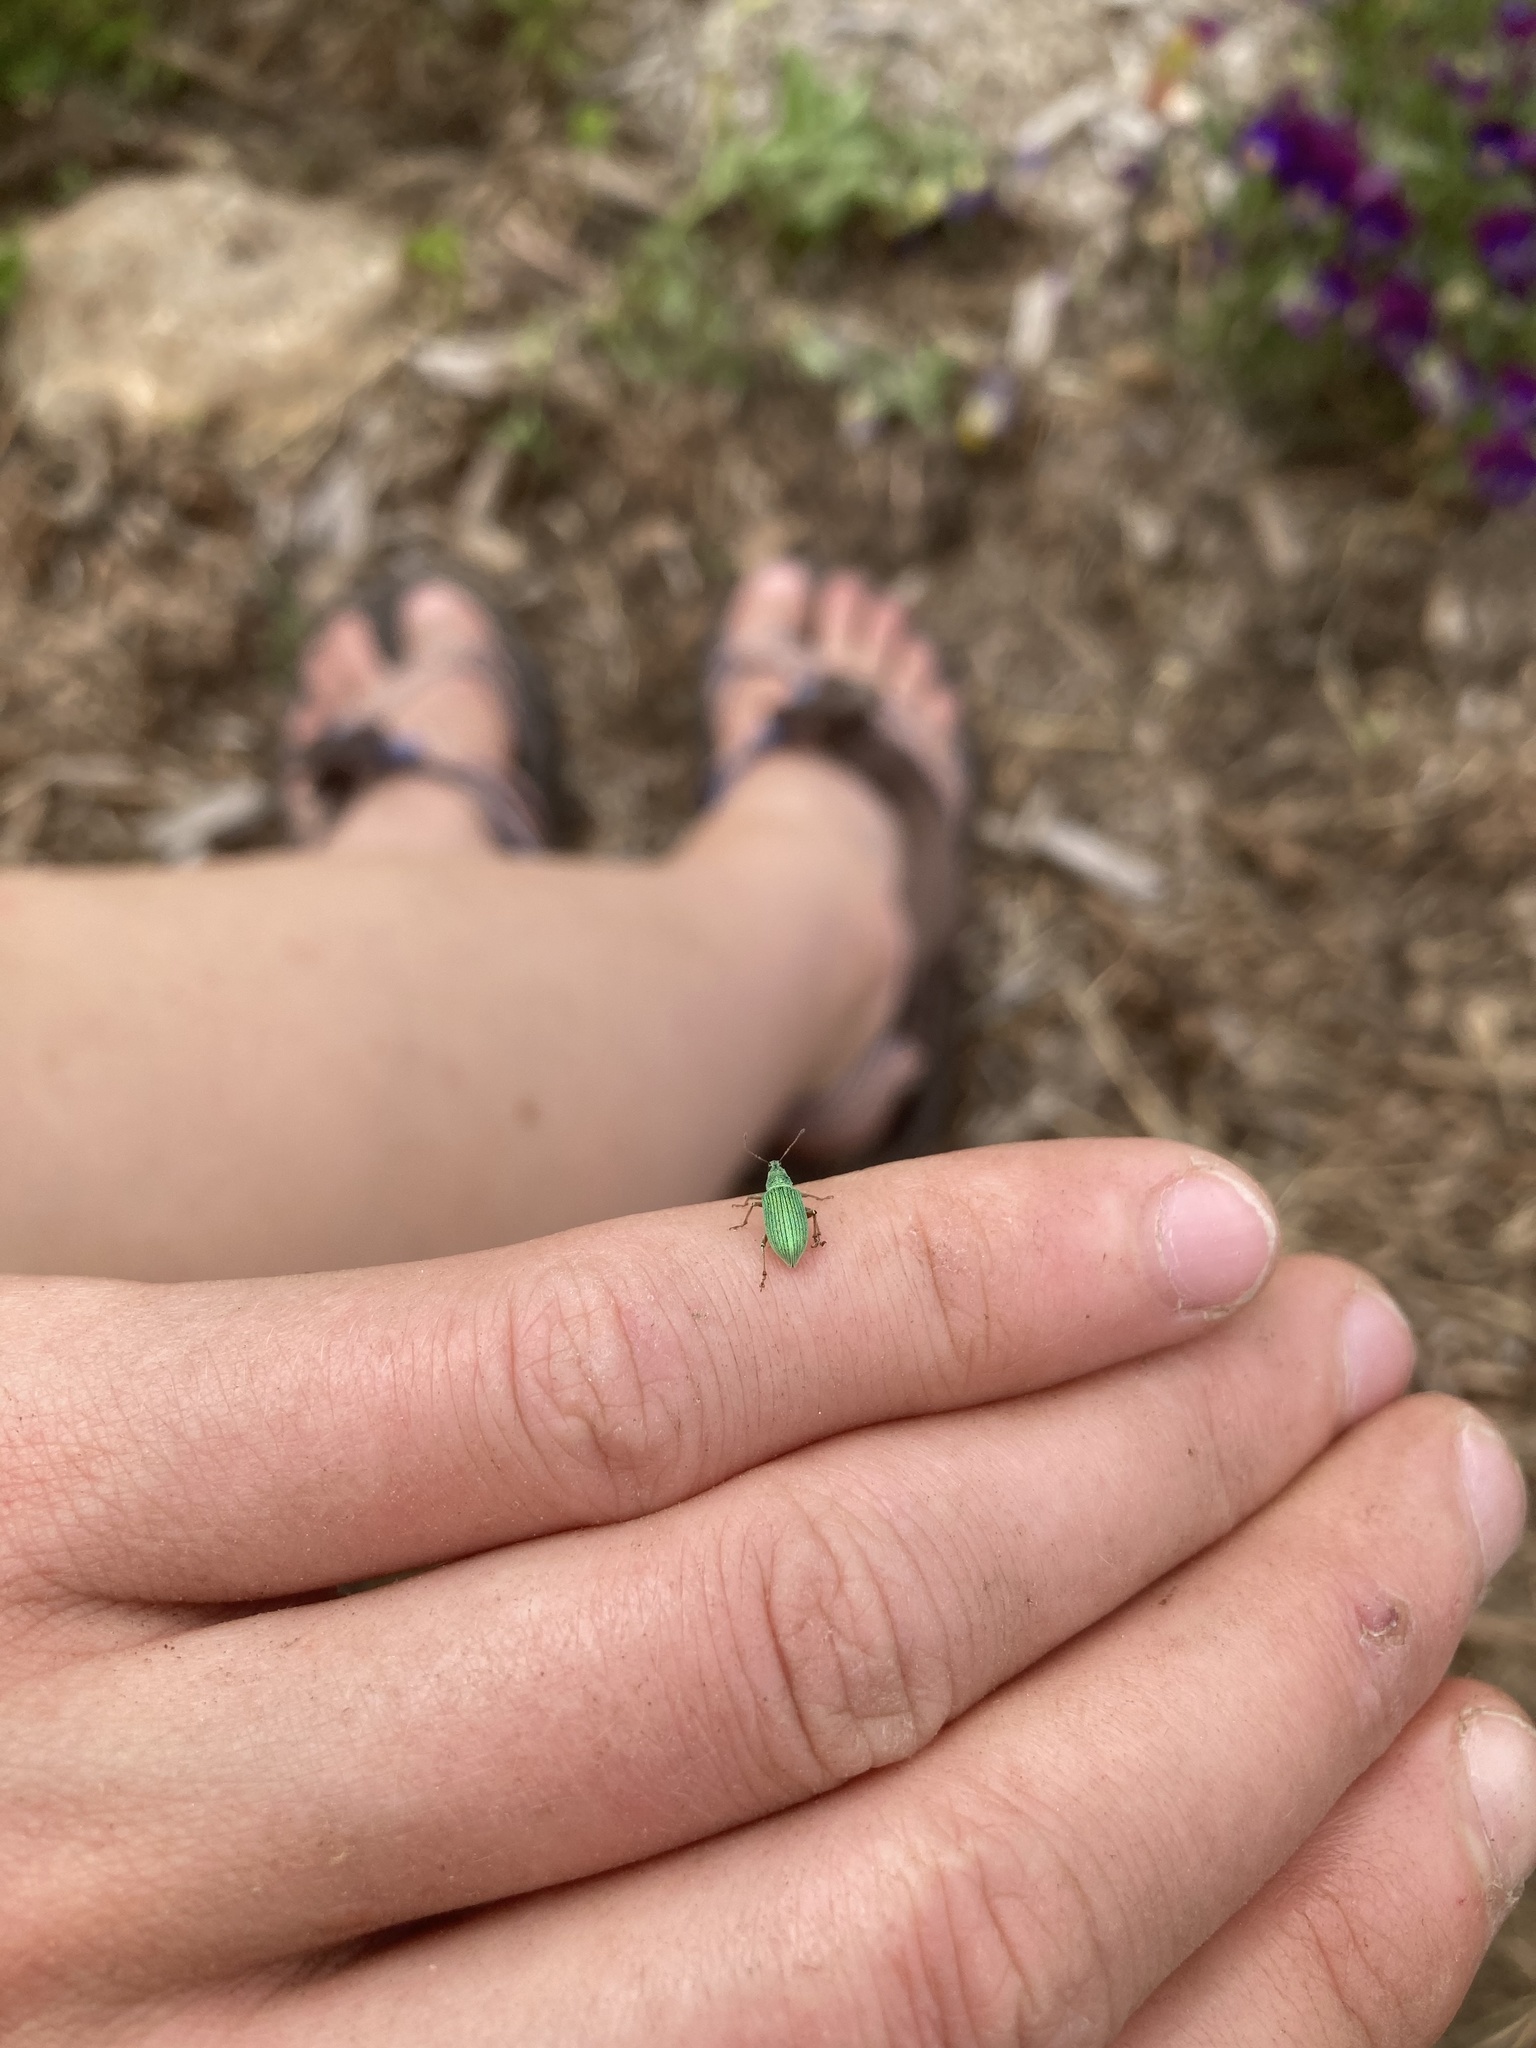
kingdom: Animalia
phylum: Arthropoda
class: Insecta
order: Coleoptera
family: Curculionidae
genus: Polydrusus
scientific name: Polydrusus formosus
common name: Weevil
